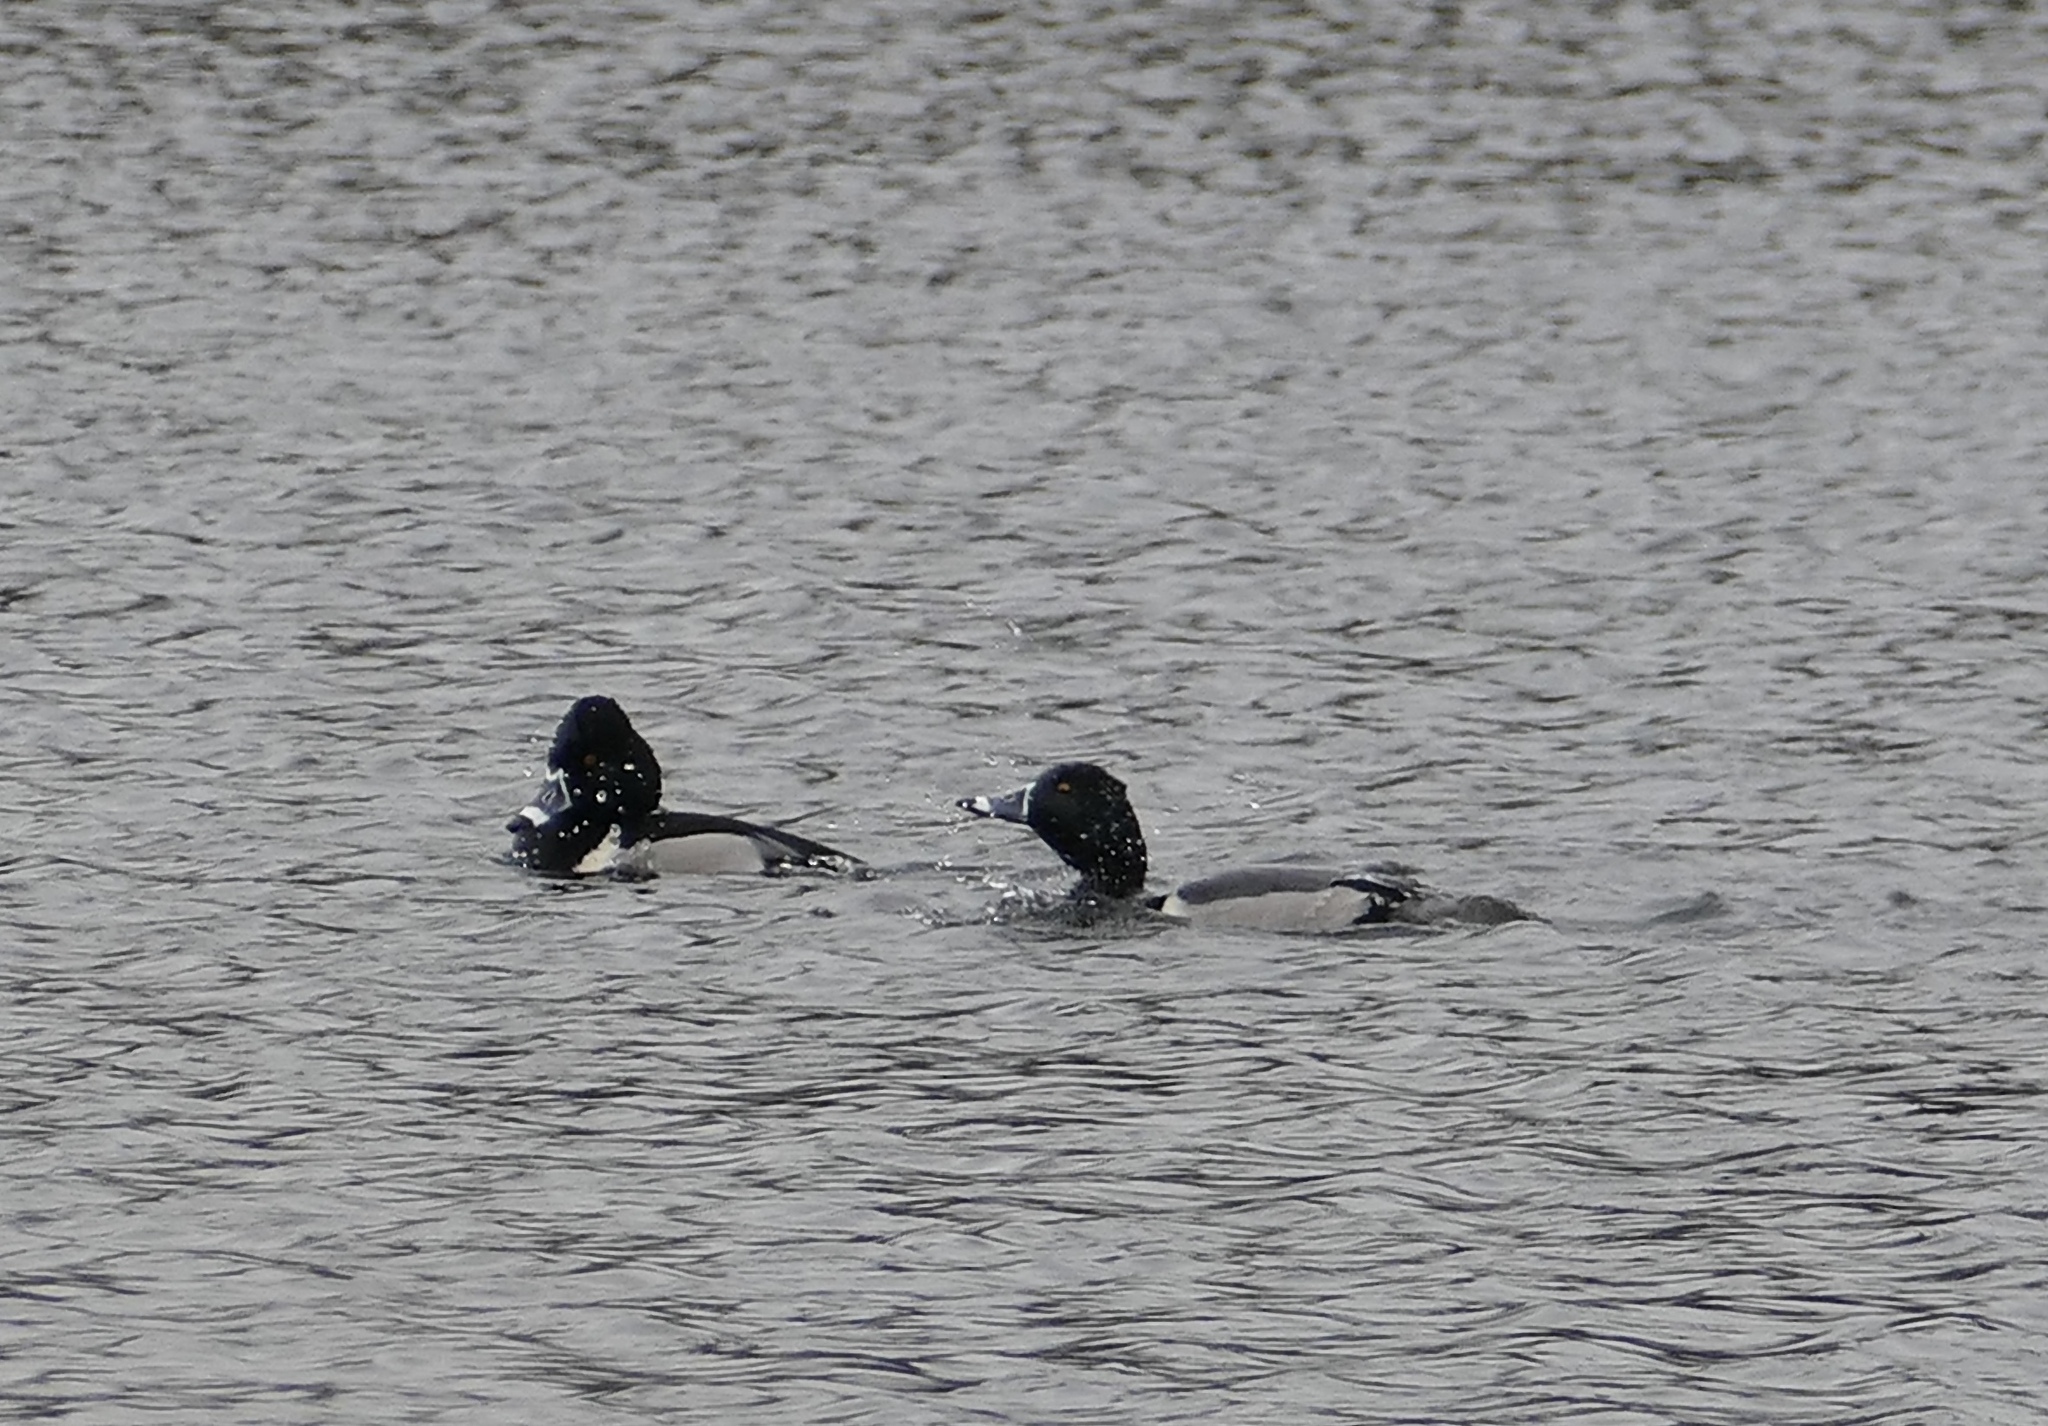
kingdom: Animalia
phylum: Chordata
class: Aves
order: Anseriformes
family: Anatidae
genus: Aythya
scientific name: Aythya collaris
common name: Ring-necked duck
